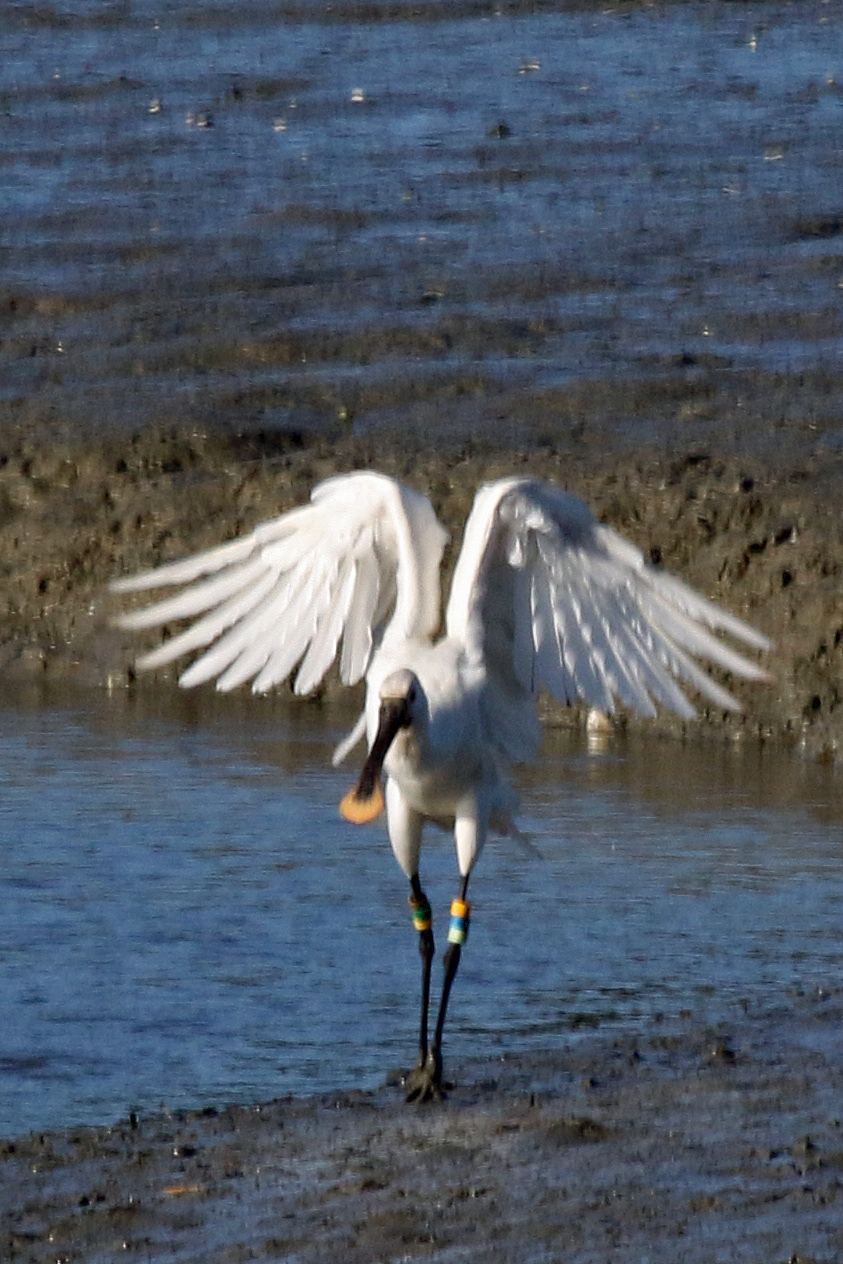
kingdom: Animalia
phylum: Chordata
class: Aves
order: Pelecaniformes
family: Threskiornithidae
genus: Platalea
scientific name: Platalea leucorodia
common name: Eurasian spoonbill
